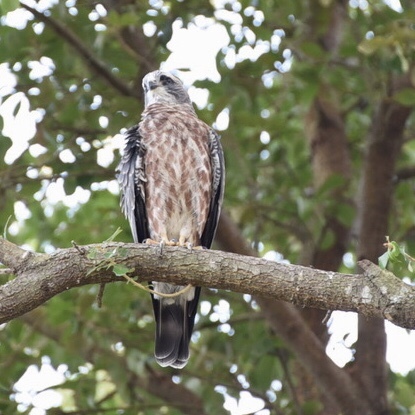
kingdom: Animalia
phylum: Chordata
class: Aves
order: Accipitriformes
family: Accipitridae
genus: Ictinia
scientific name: Ictinia mississippiensis
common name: Mississippi kite
